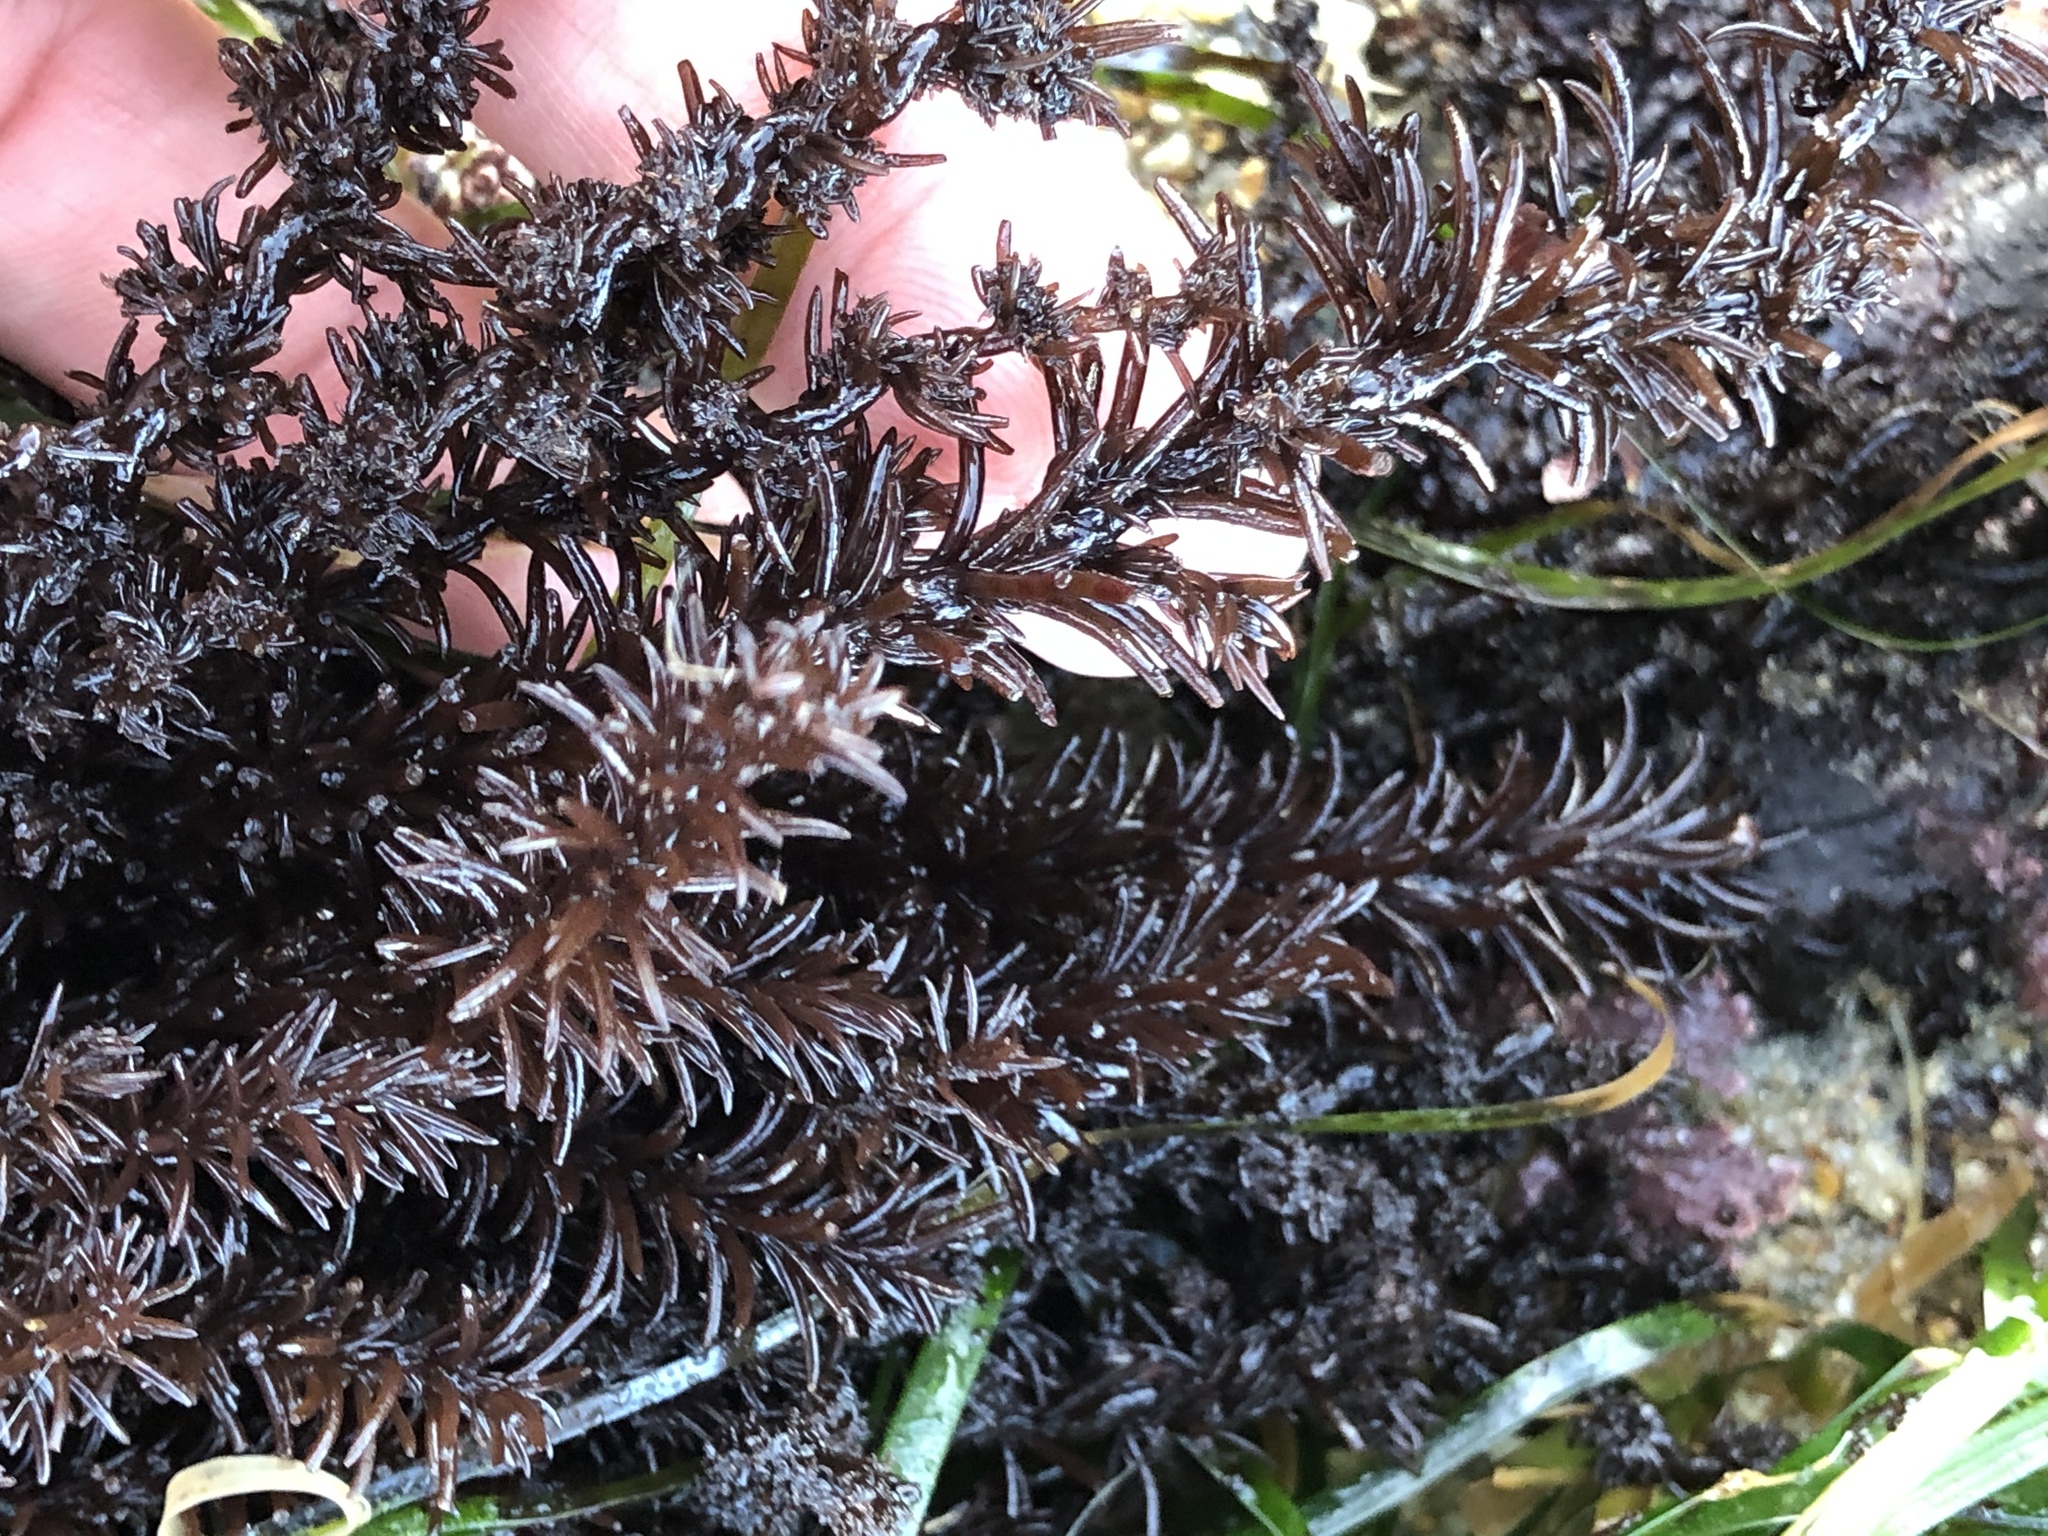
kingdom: Plantae
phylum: Rhodophyta
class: Florideophyceae
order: Ceramiales
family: Rhodomelaceae
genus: Neorhodomela
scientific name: Neorhodomela larix
